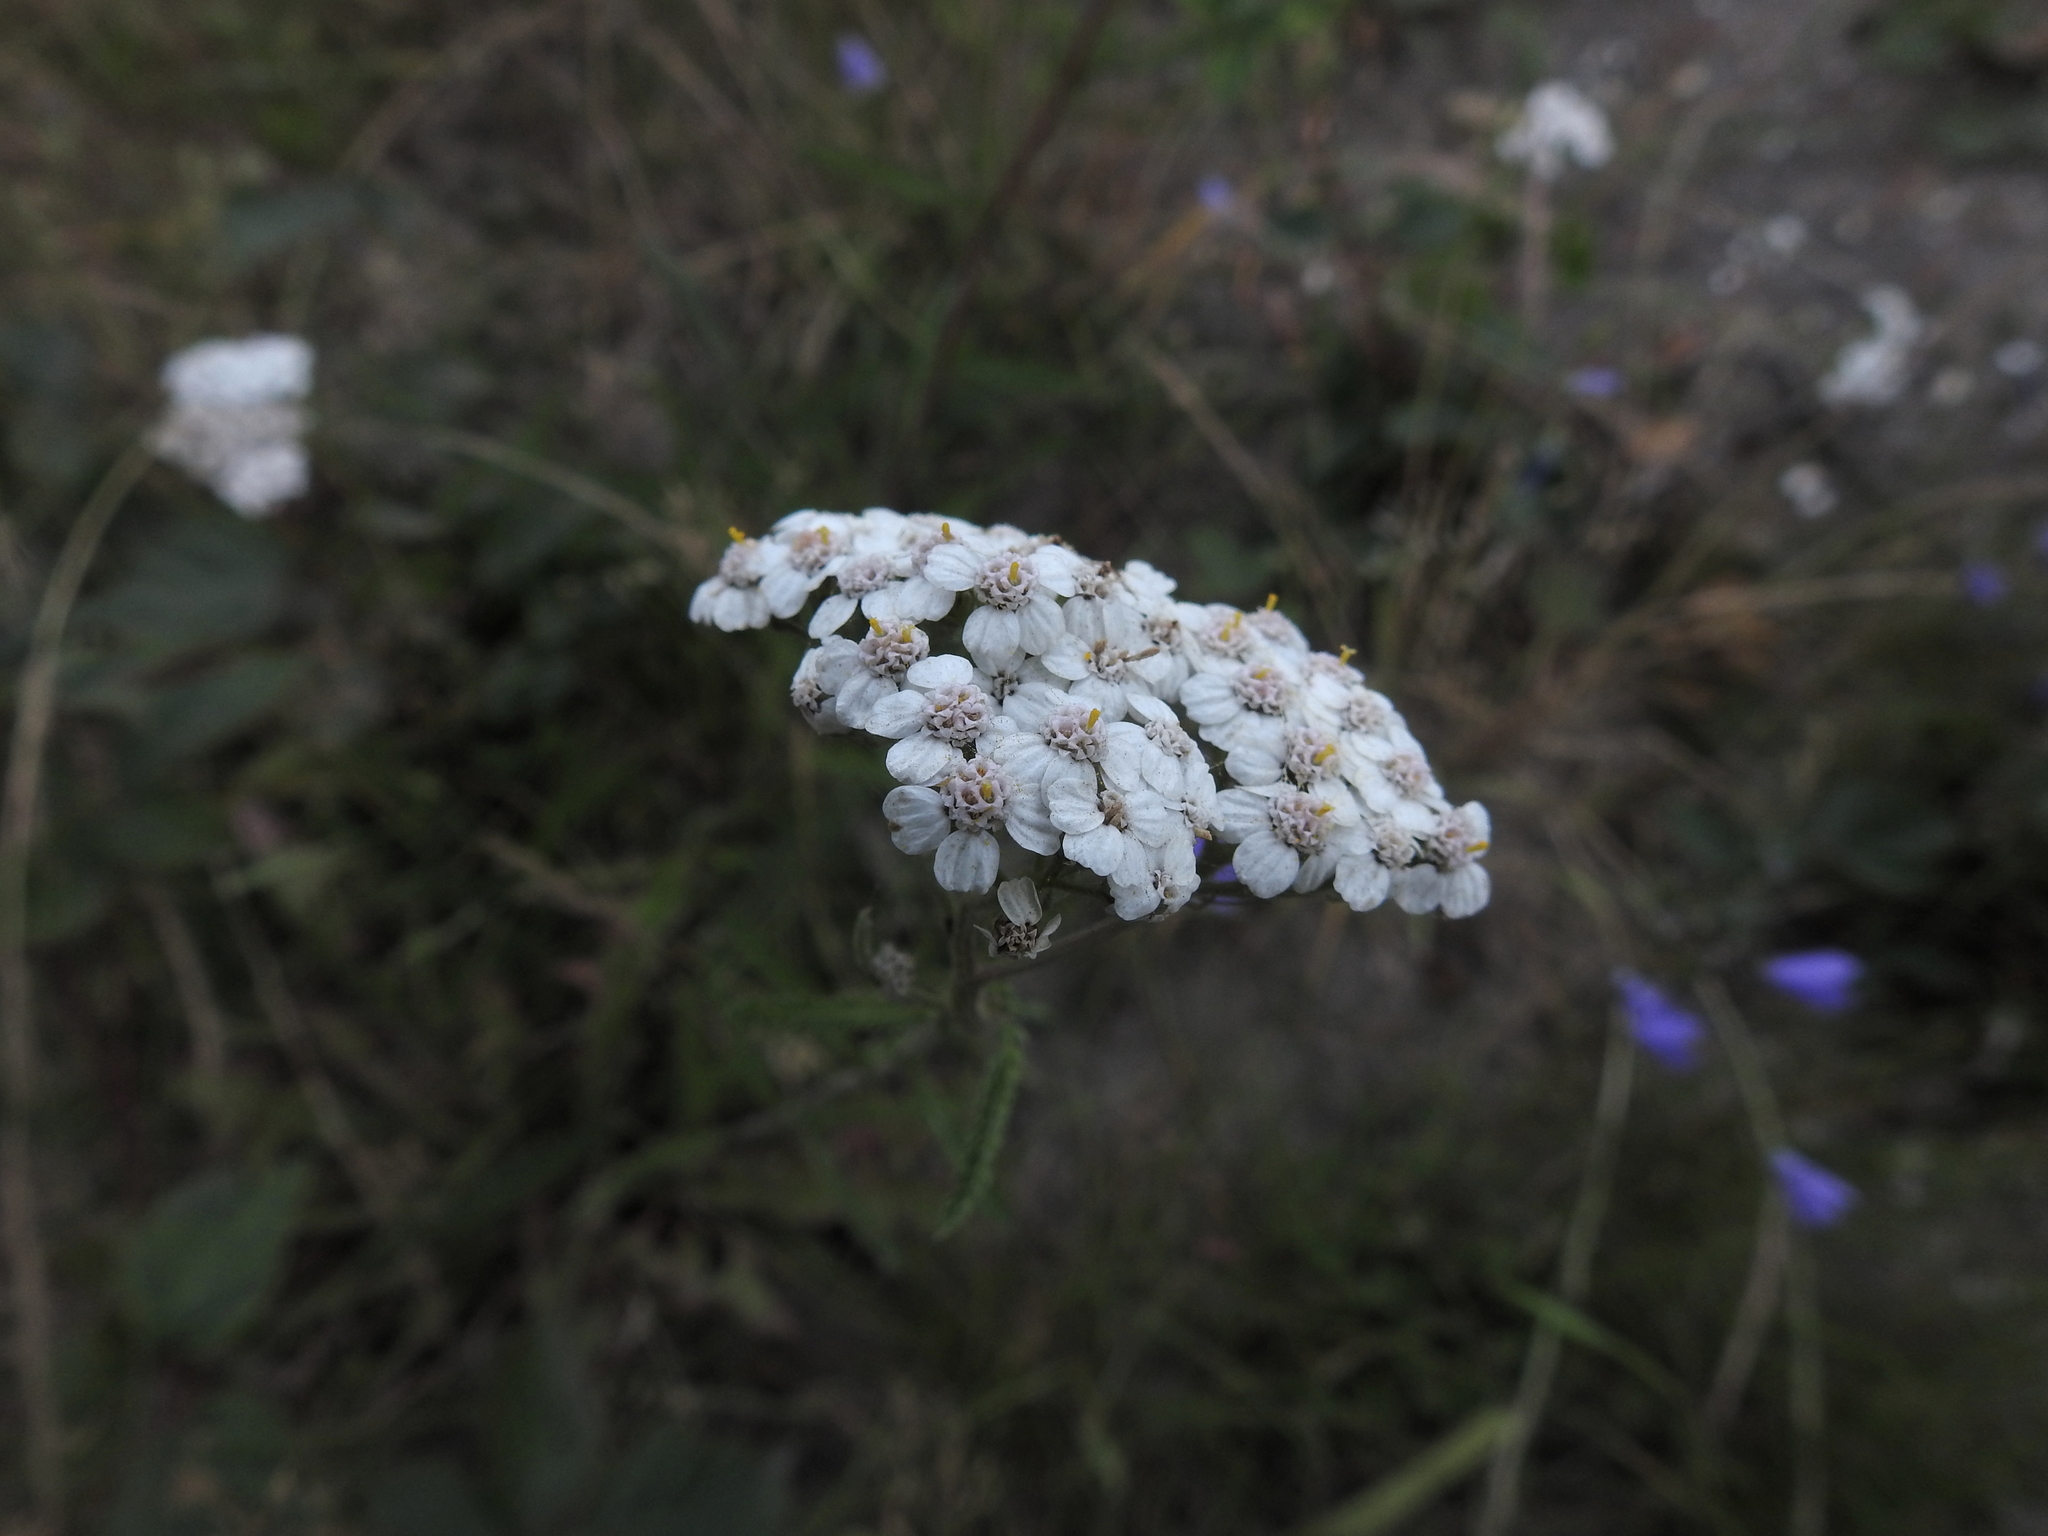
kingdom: Plantae
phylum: Tracheophyta
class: Magnoliopsida
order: Asterales
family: Asteraceae
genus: Achillea
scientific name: Achillea millefolium
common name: Yarrow
